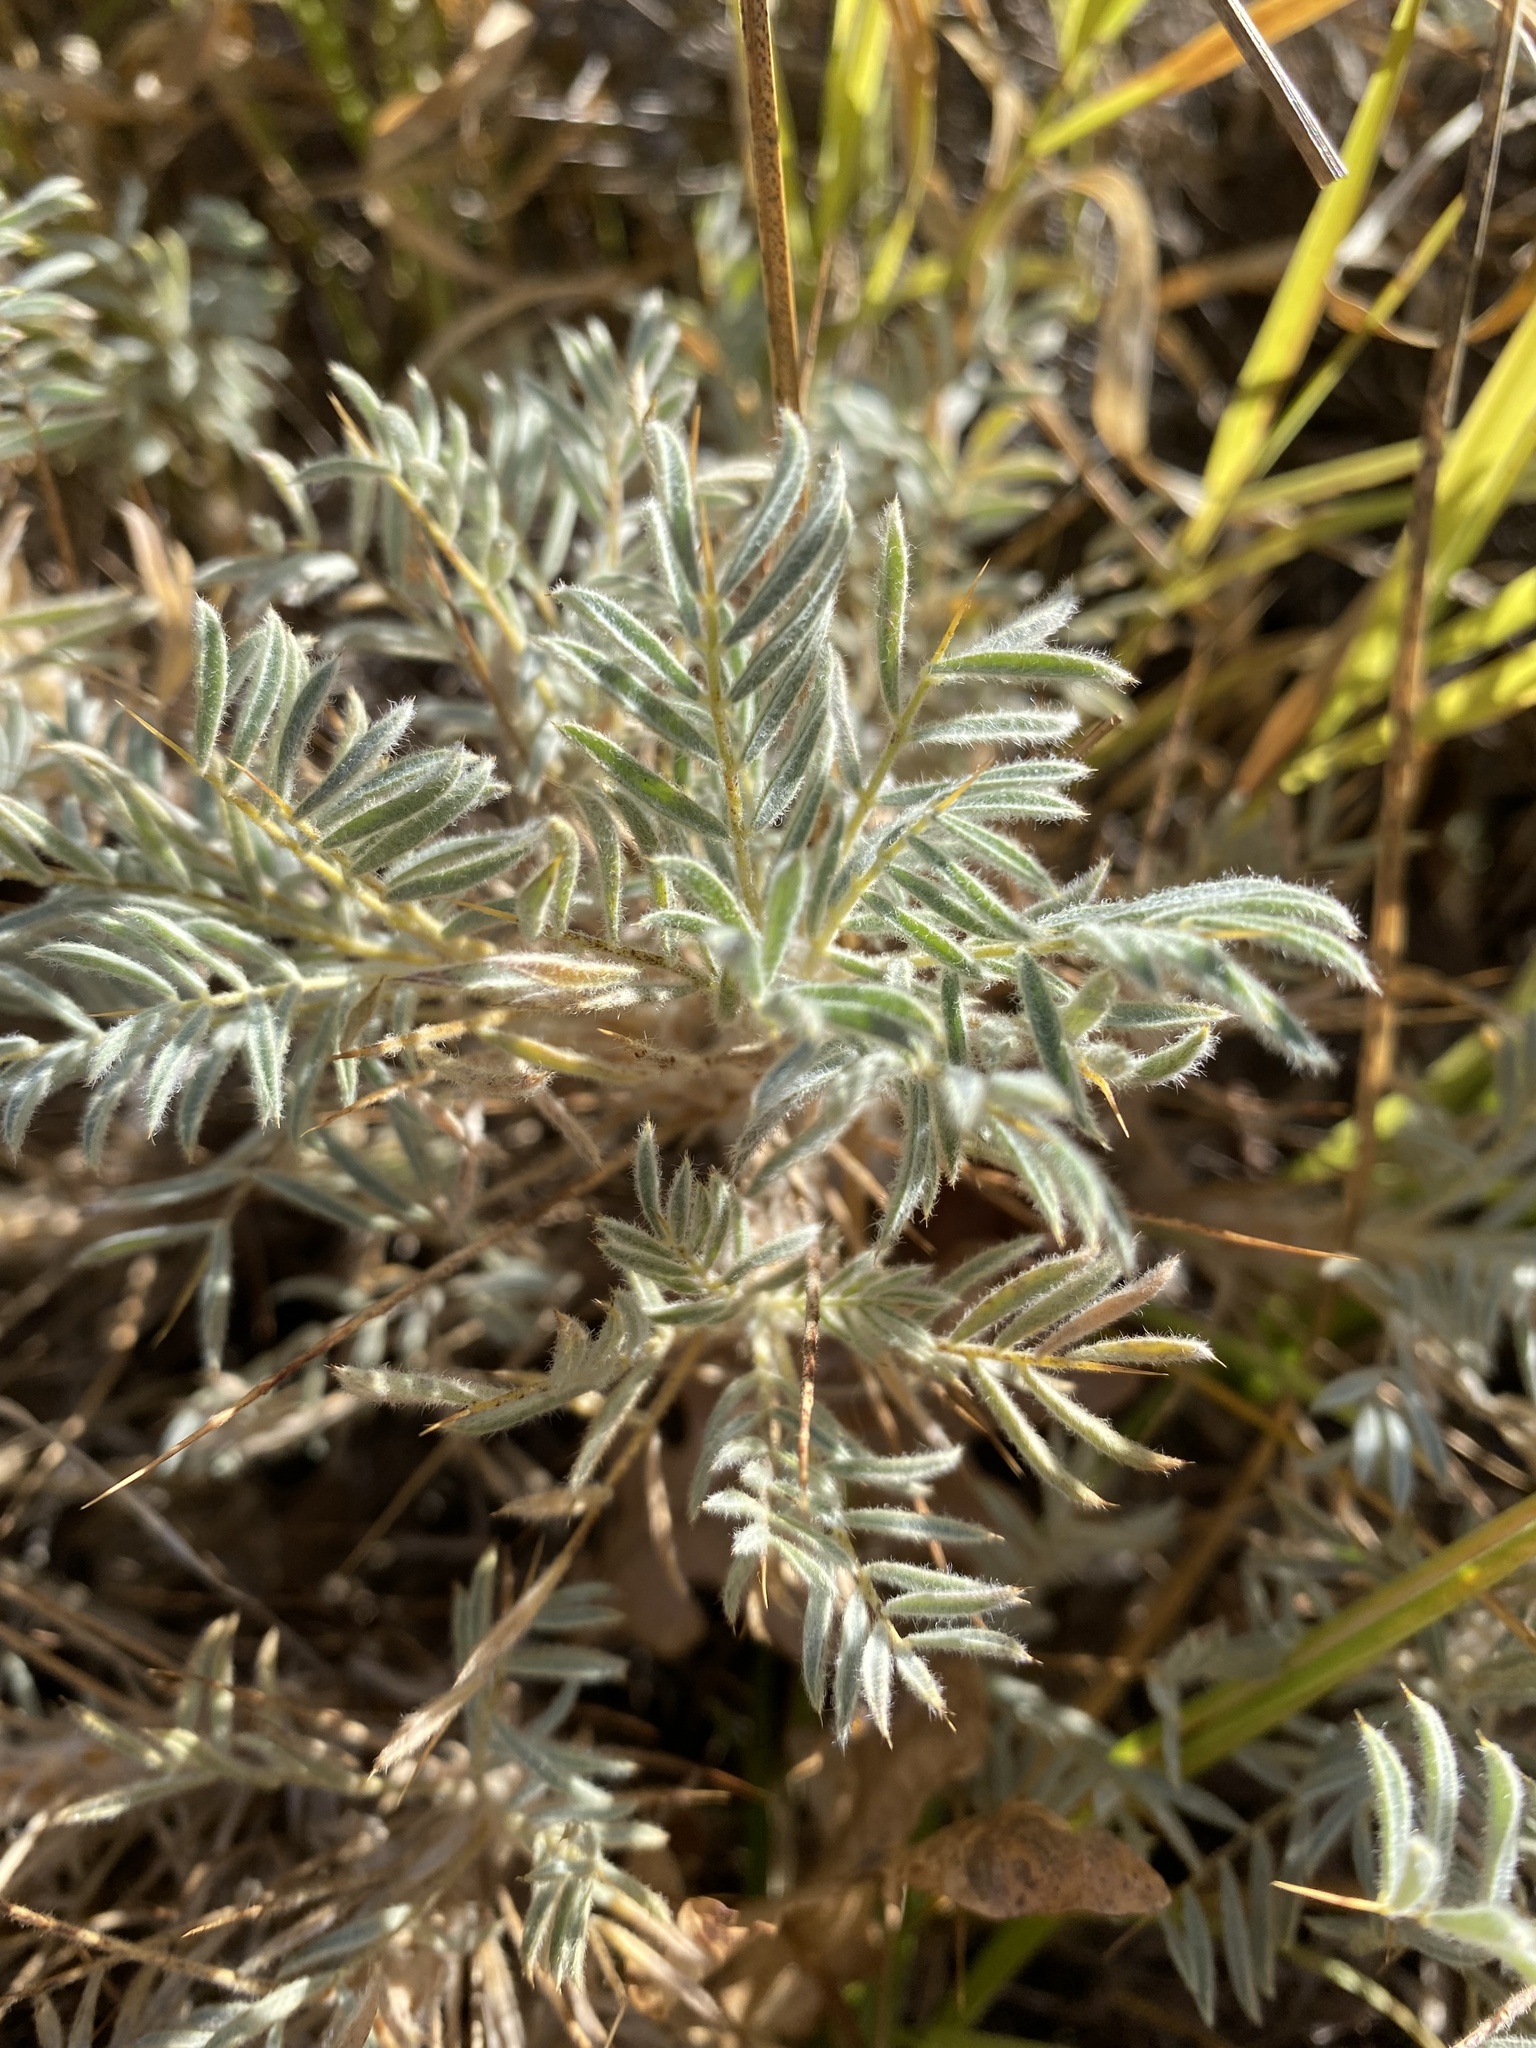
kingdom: Plantae
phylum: Tracheophyta
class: Magnoliopsida
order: Fabales
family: Fabaceae
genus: Astragalus
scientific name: Astragalus arnacanthoides
